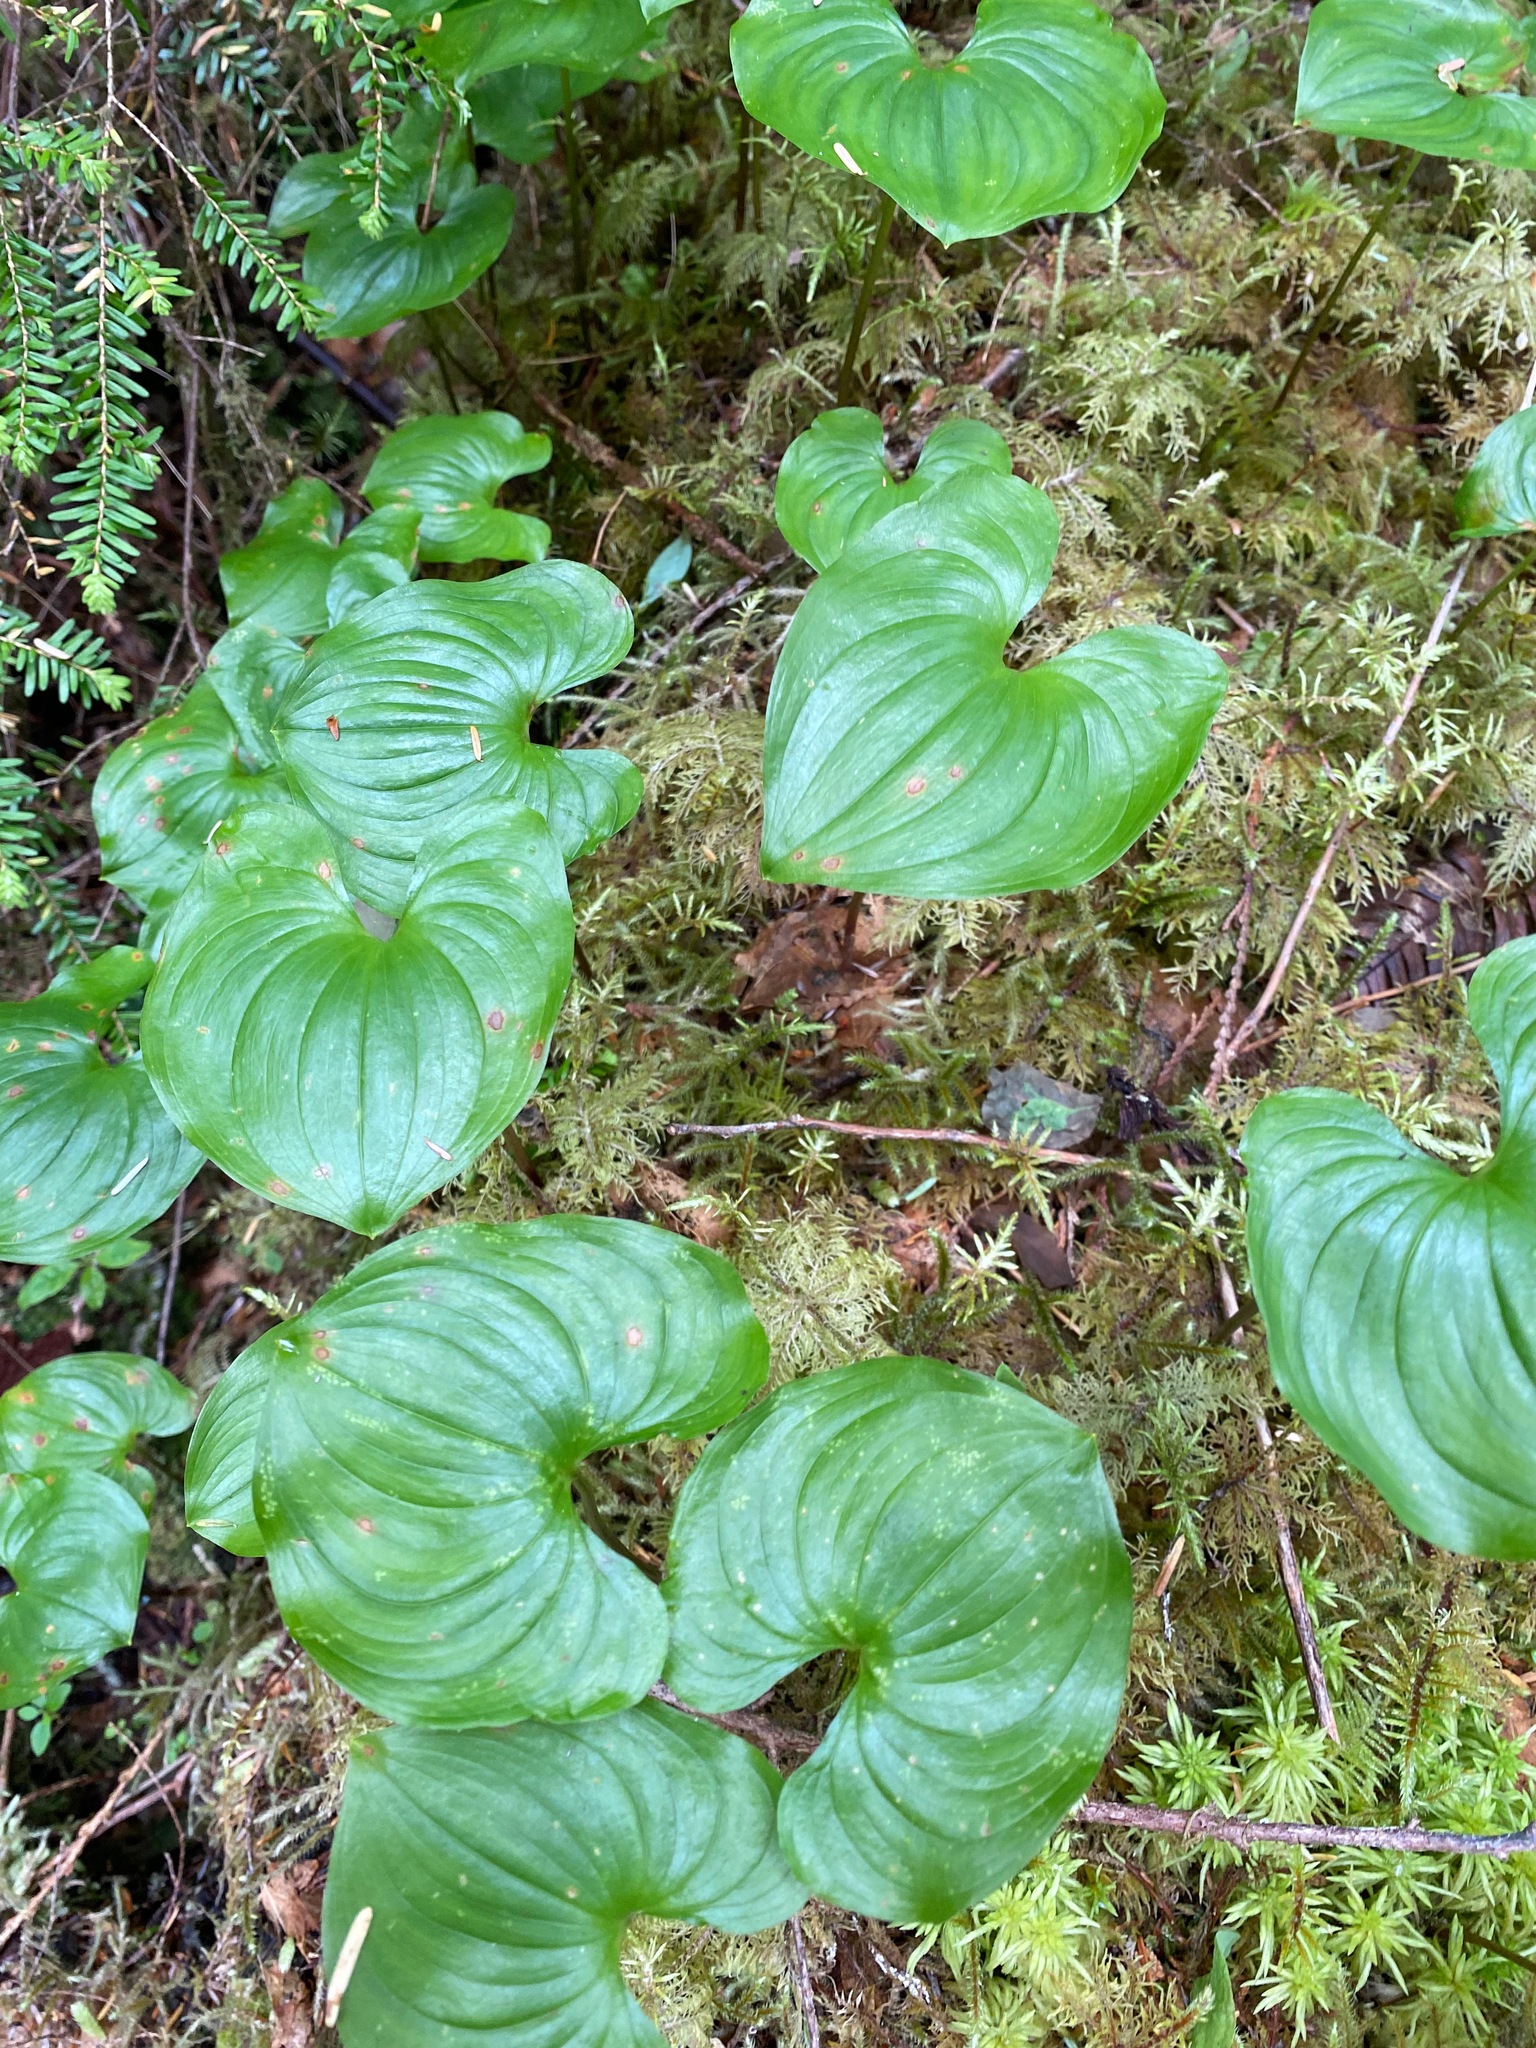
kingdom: Plantae
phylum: Tracheophyta
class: Liliopsida
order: Asparagales
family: Asparagaceae
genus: Maianthemum
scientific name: Maianthemum dilatatum
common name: False lily-of-the-valley
